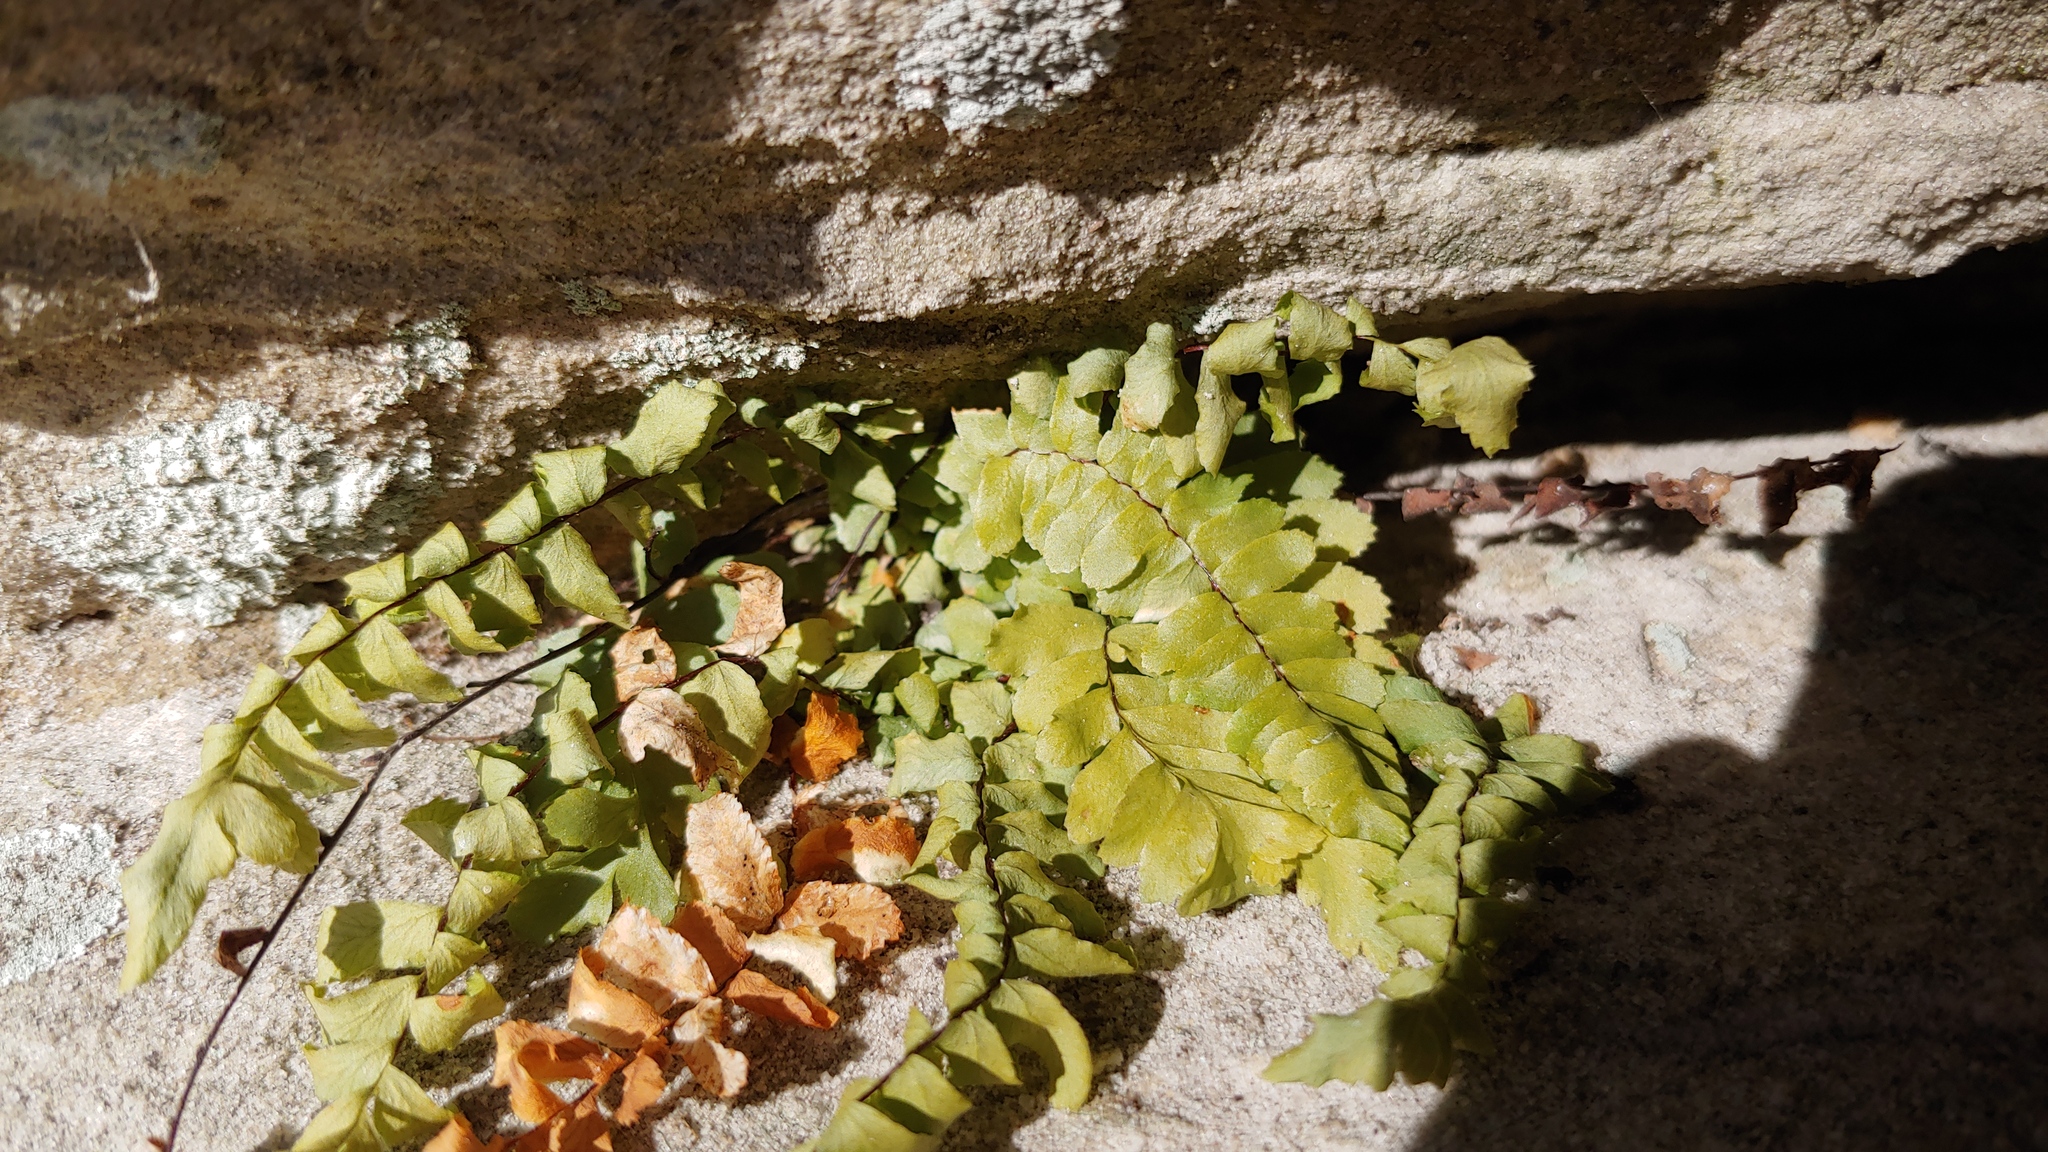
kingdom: Plantae
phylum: Tracheophyta
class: Polypodiopsida
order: Polypodiales
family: Aspleniaceae
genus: Asplenium
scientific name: Asplenium platyneuron
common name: Ebony spleenwort
